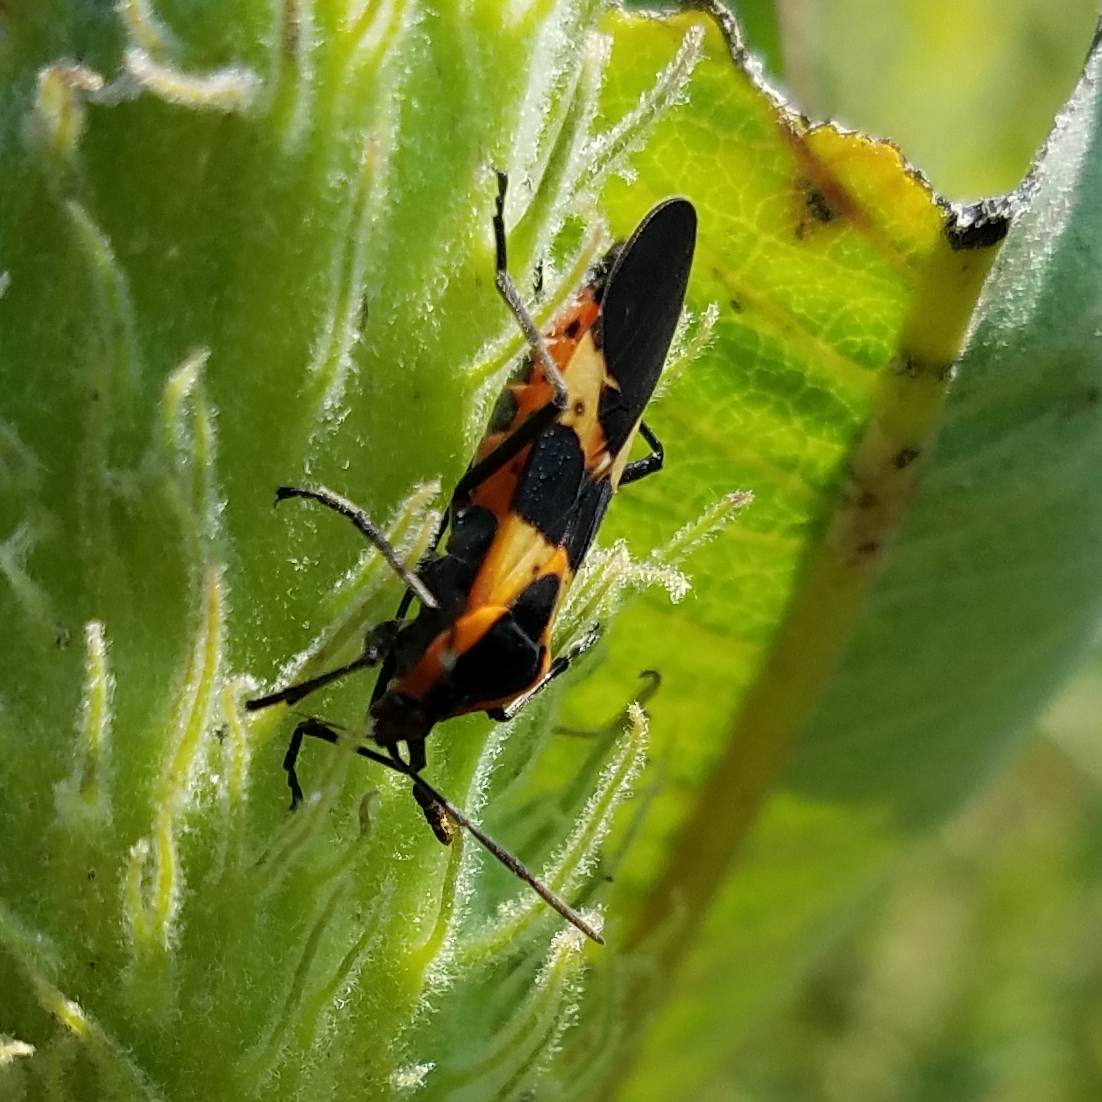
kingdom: Animalia
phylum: Arthropoda
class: Insecta
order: Hemiptera
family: Lygaeidae
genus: Oncopeltus
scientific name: Oncopeltus fasciatus
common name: Large milkweed bug
